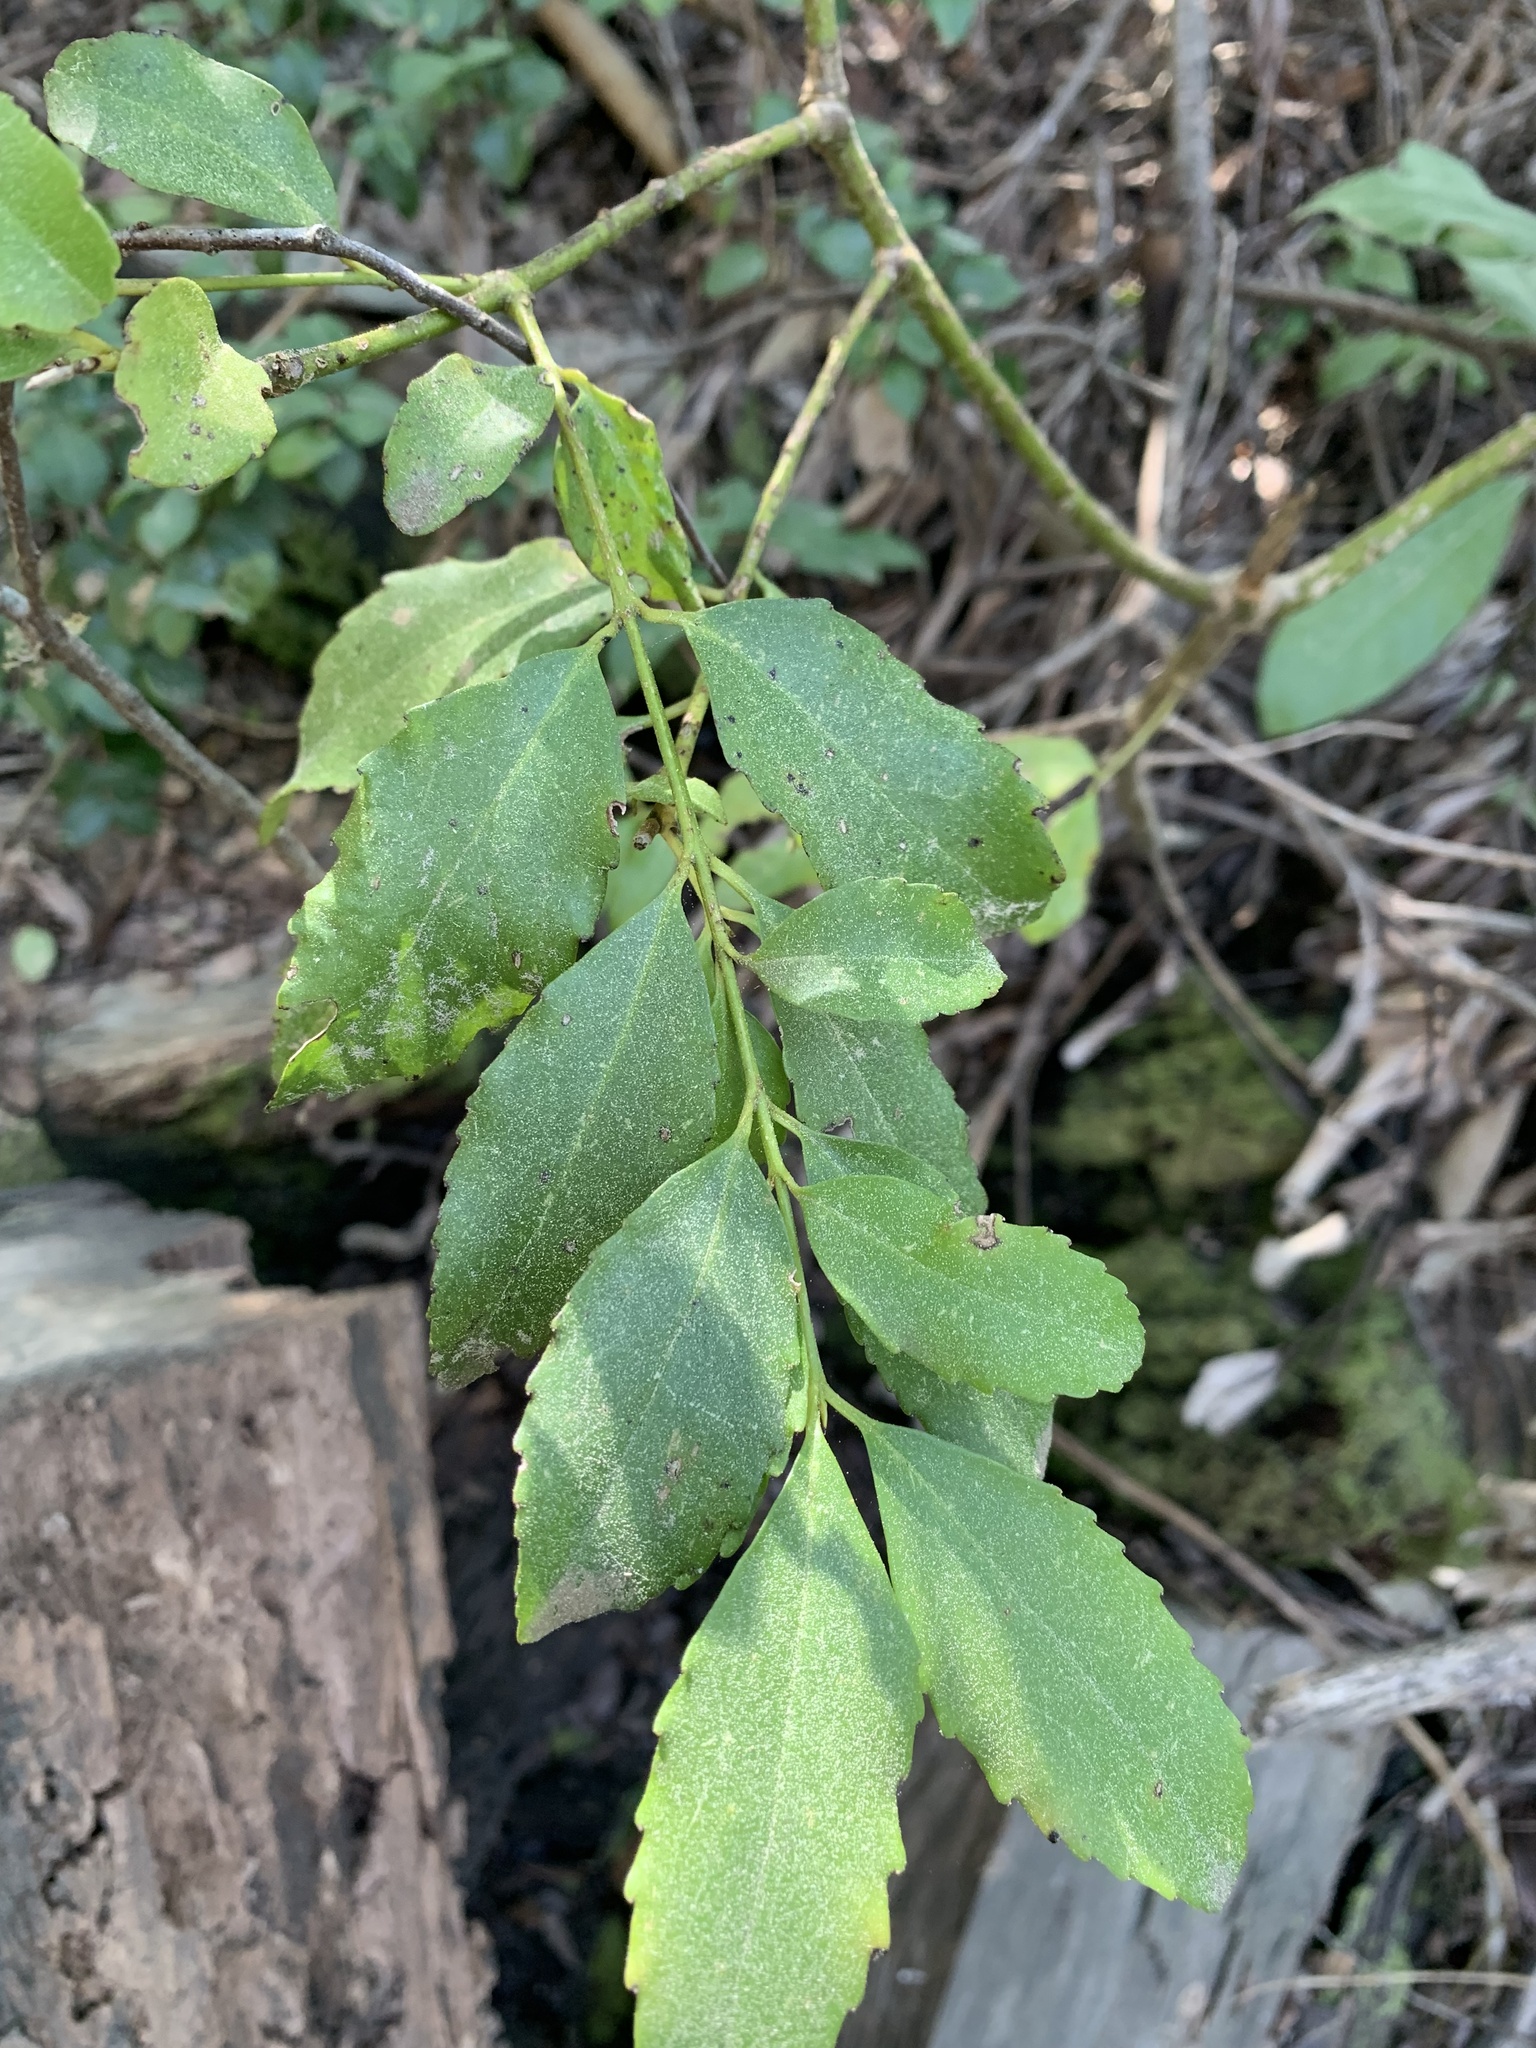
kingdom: Plantae
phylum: Tracheophyta
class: Magnoliopsida
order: Laurales
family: Atherospermataceae
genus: Laurelia
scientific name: Laurelia sempervirens
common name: Chilean laurel
